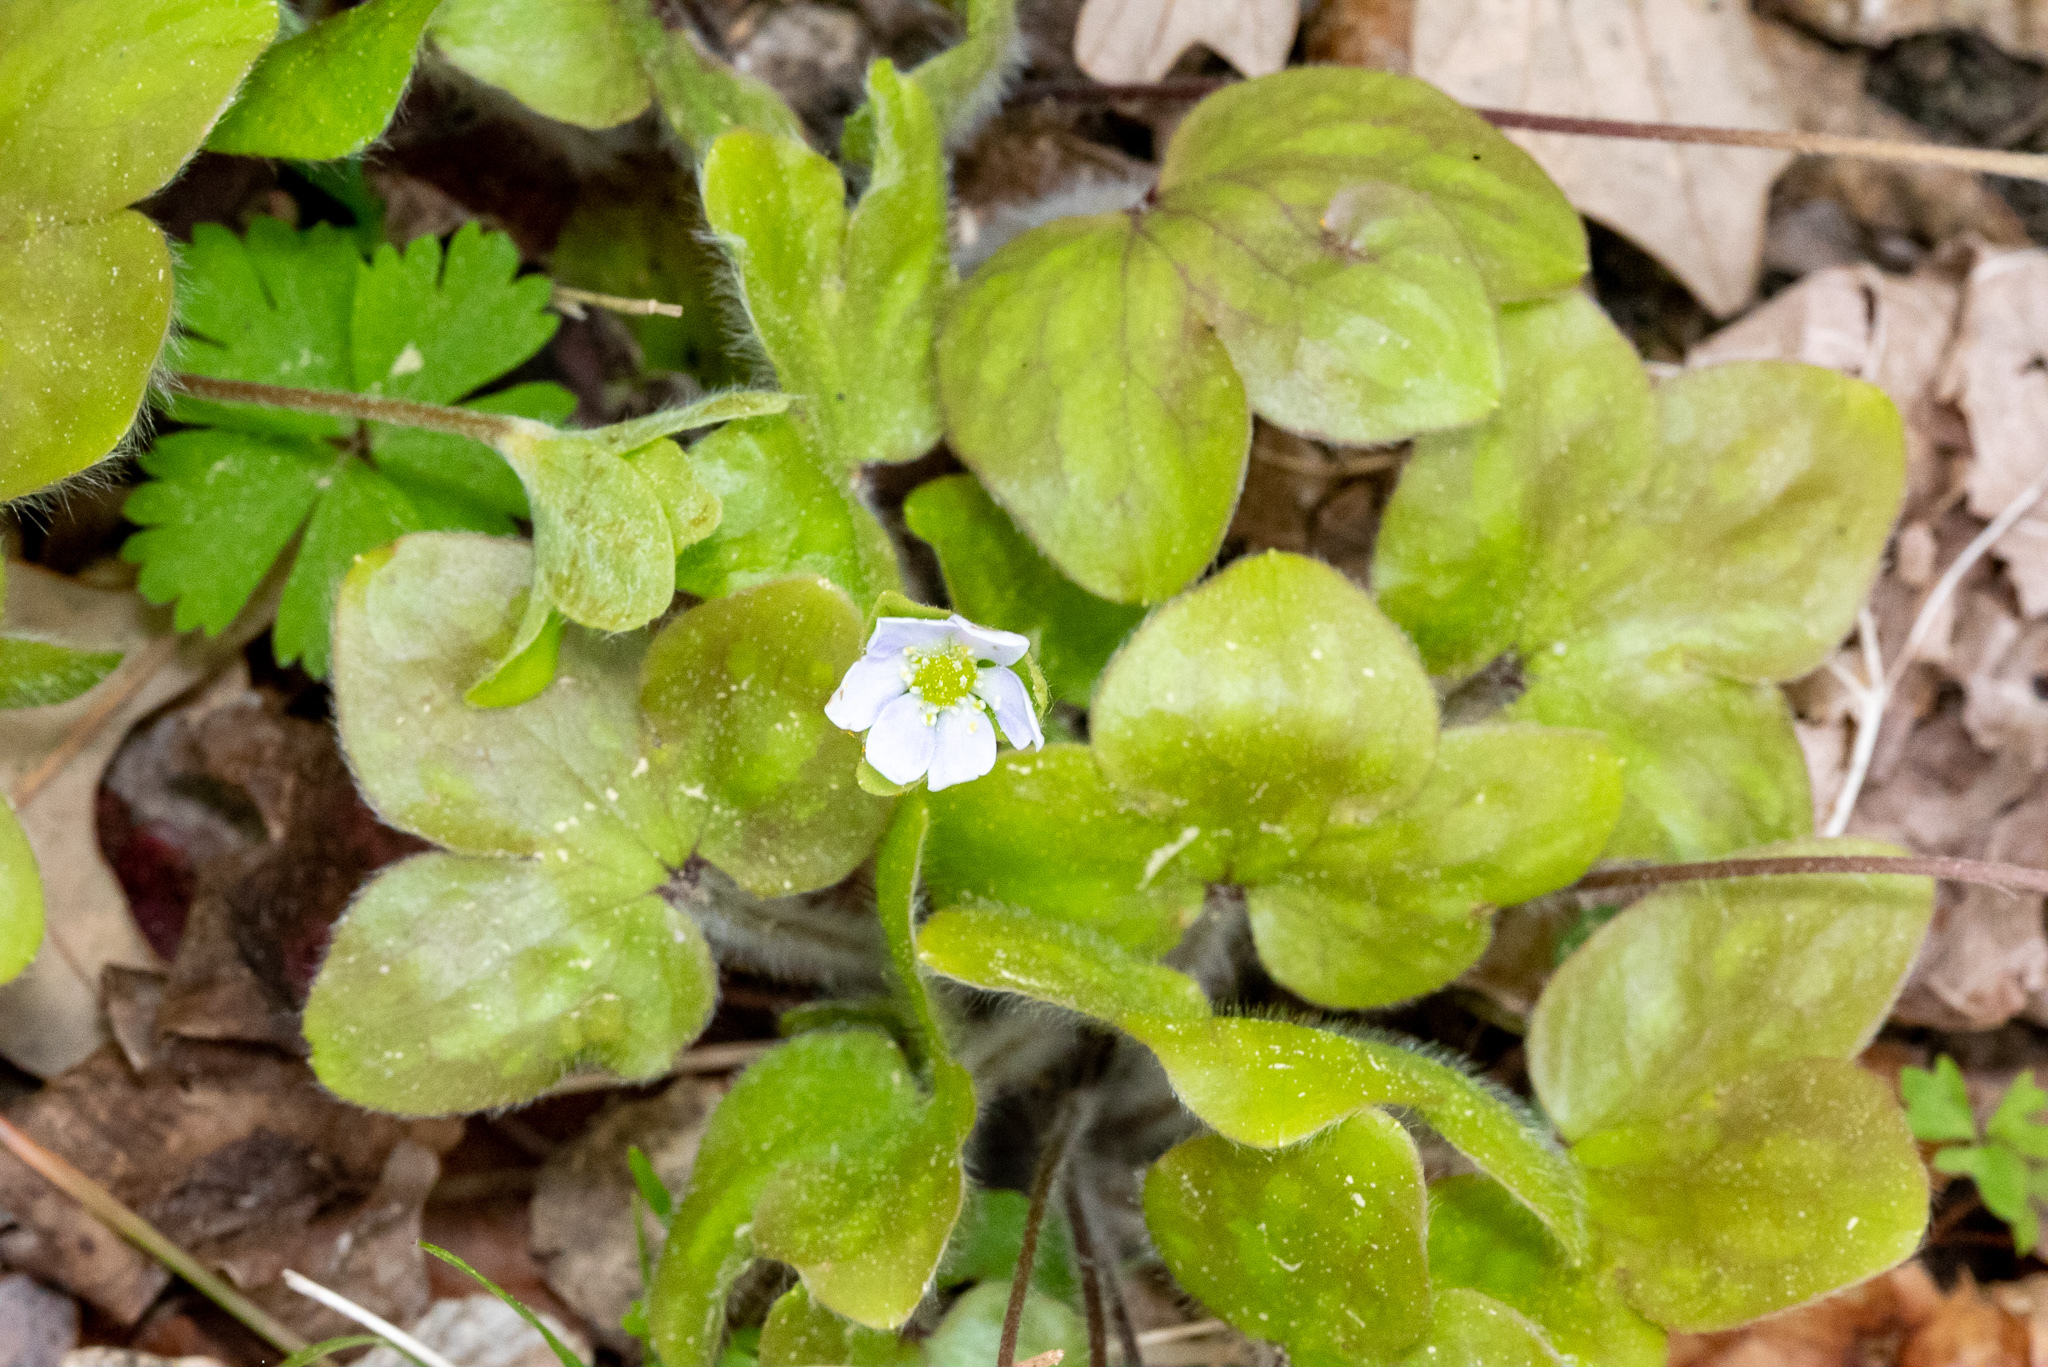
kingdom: Plantae
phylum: Tracheophyta
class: Magnoliopsida
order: Ranunculales
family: Ranunculaceae
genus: Hepatica
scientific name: Hepatica americana
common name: American hepatica
